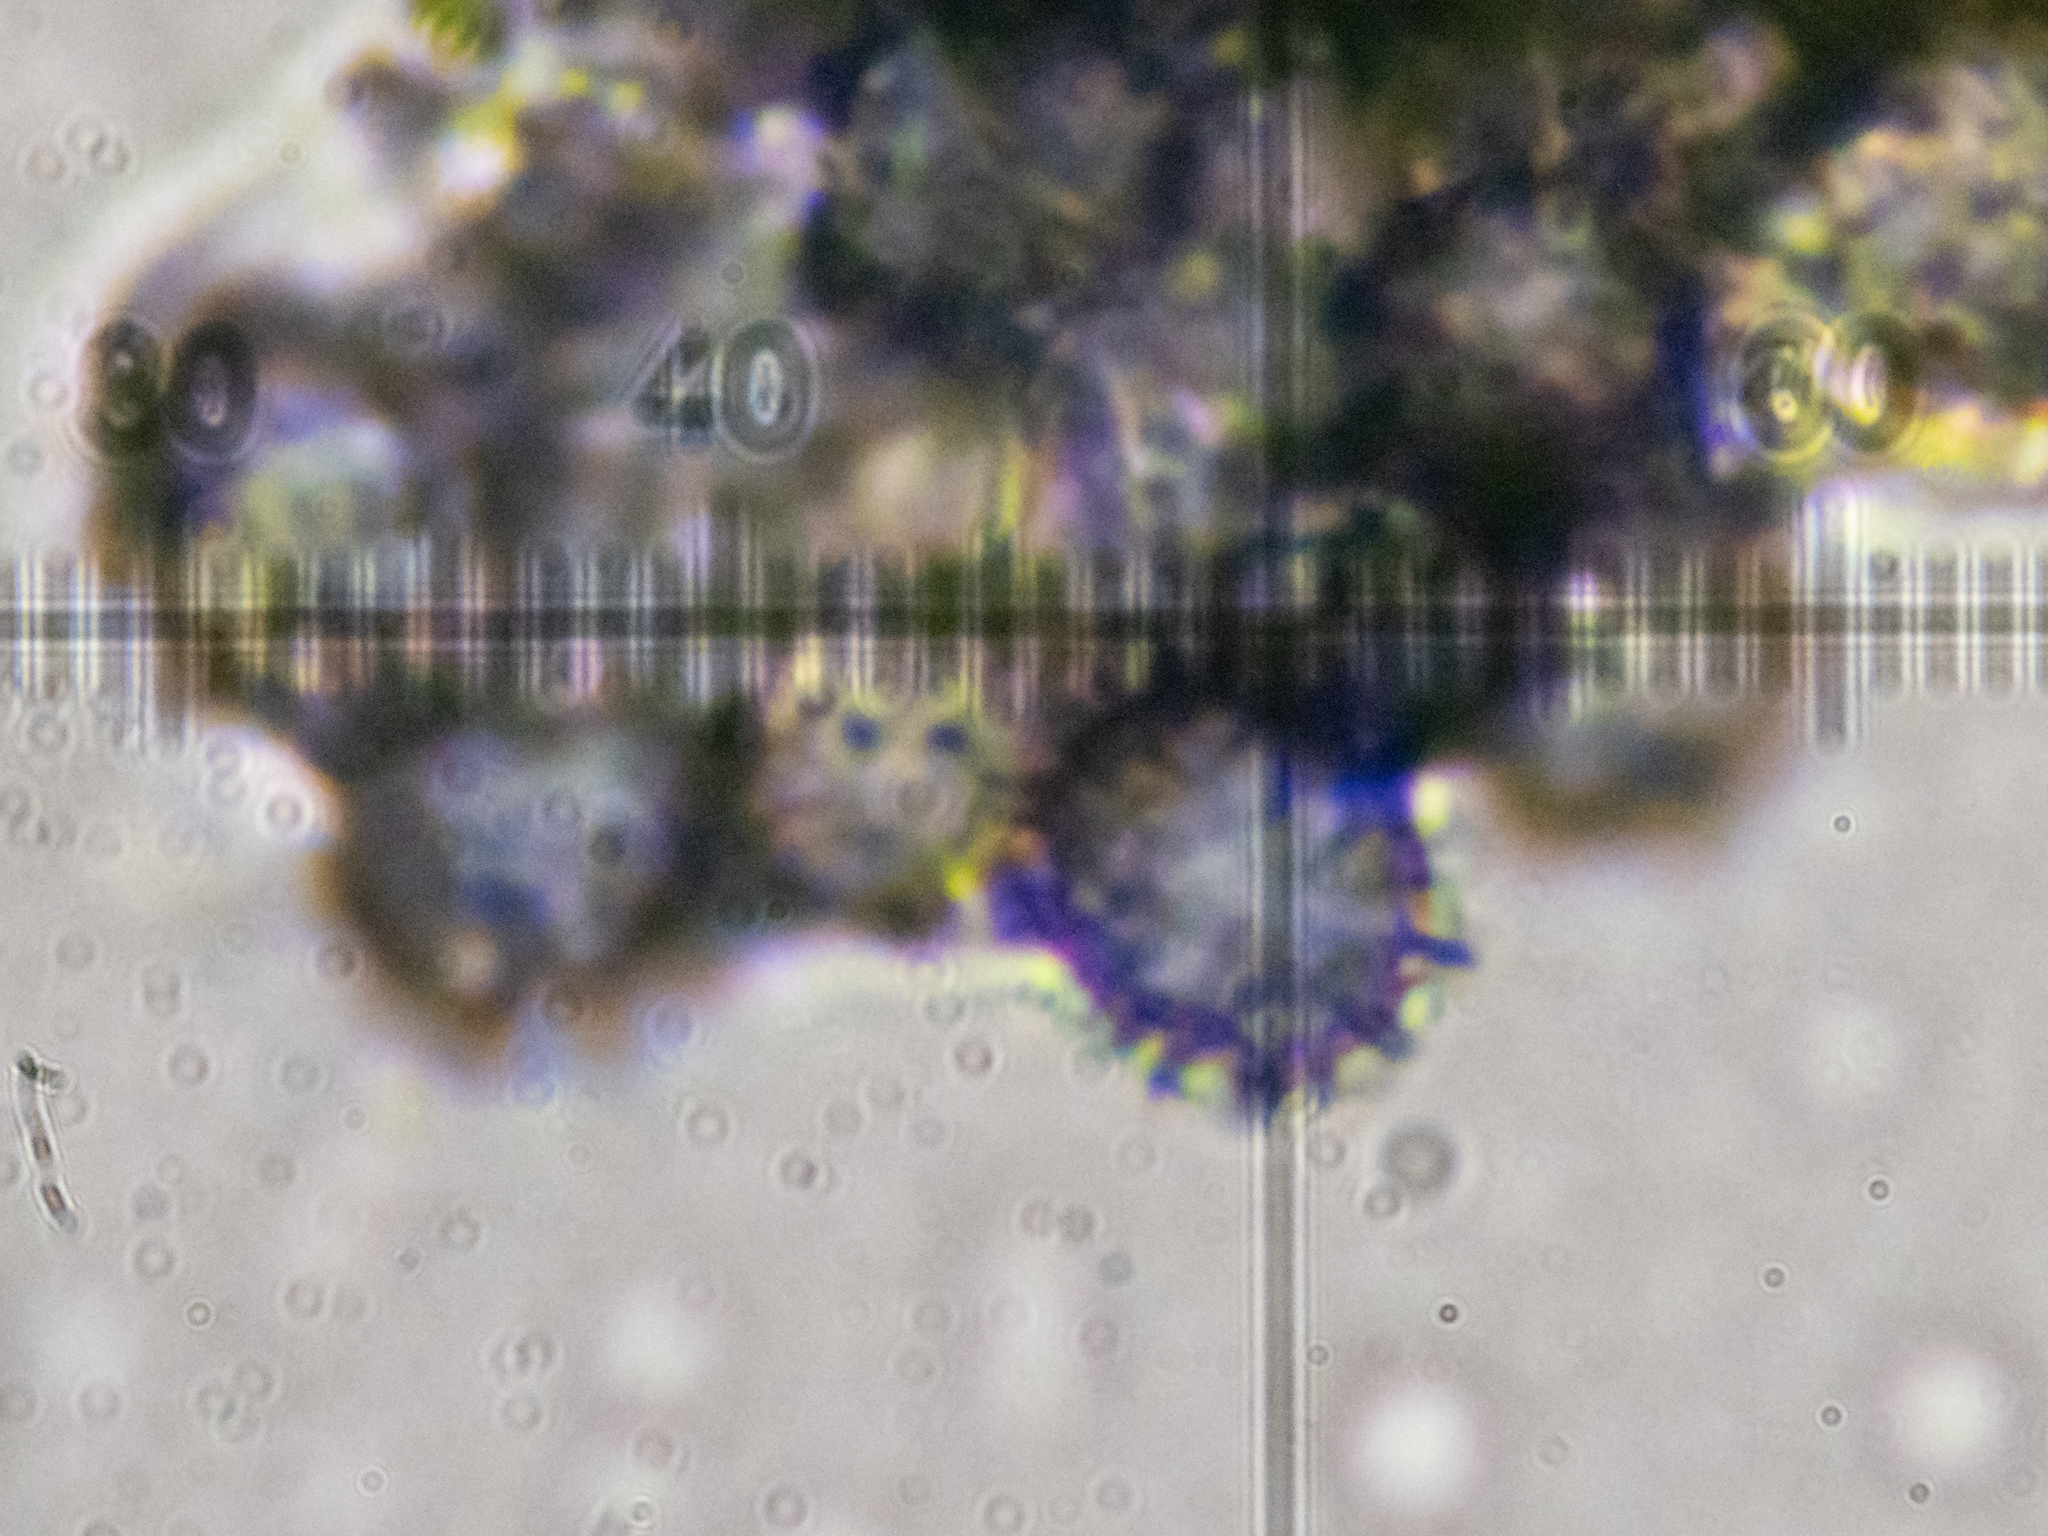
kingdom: Fungi
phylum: Basidiomycota
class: Agaricomycetes
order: Russulales
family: Russulaceae
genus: Russula
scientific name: Russula foetens
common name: Foetid russula
